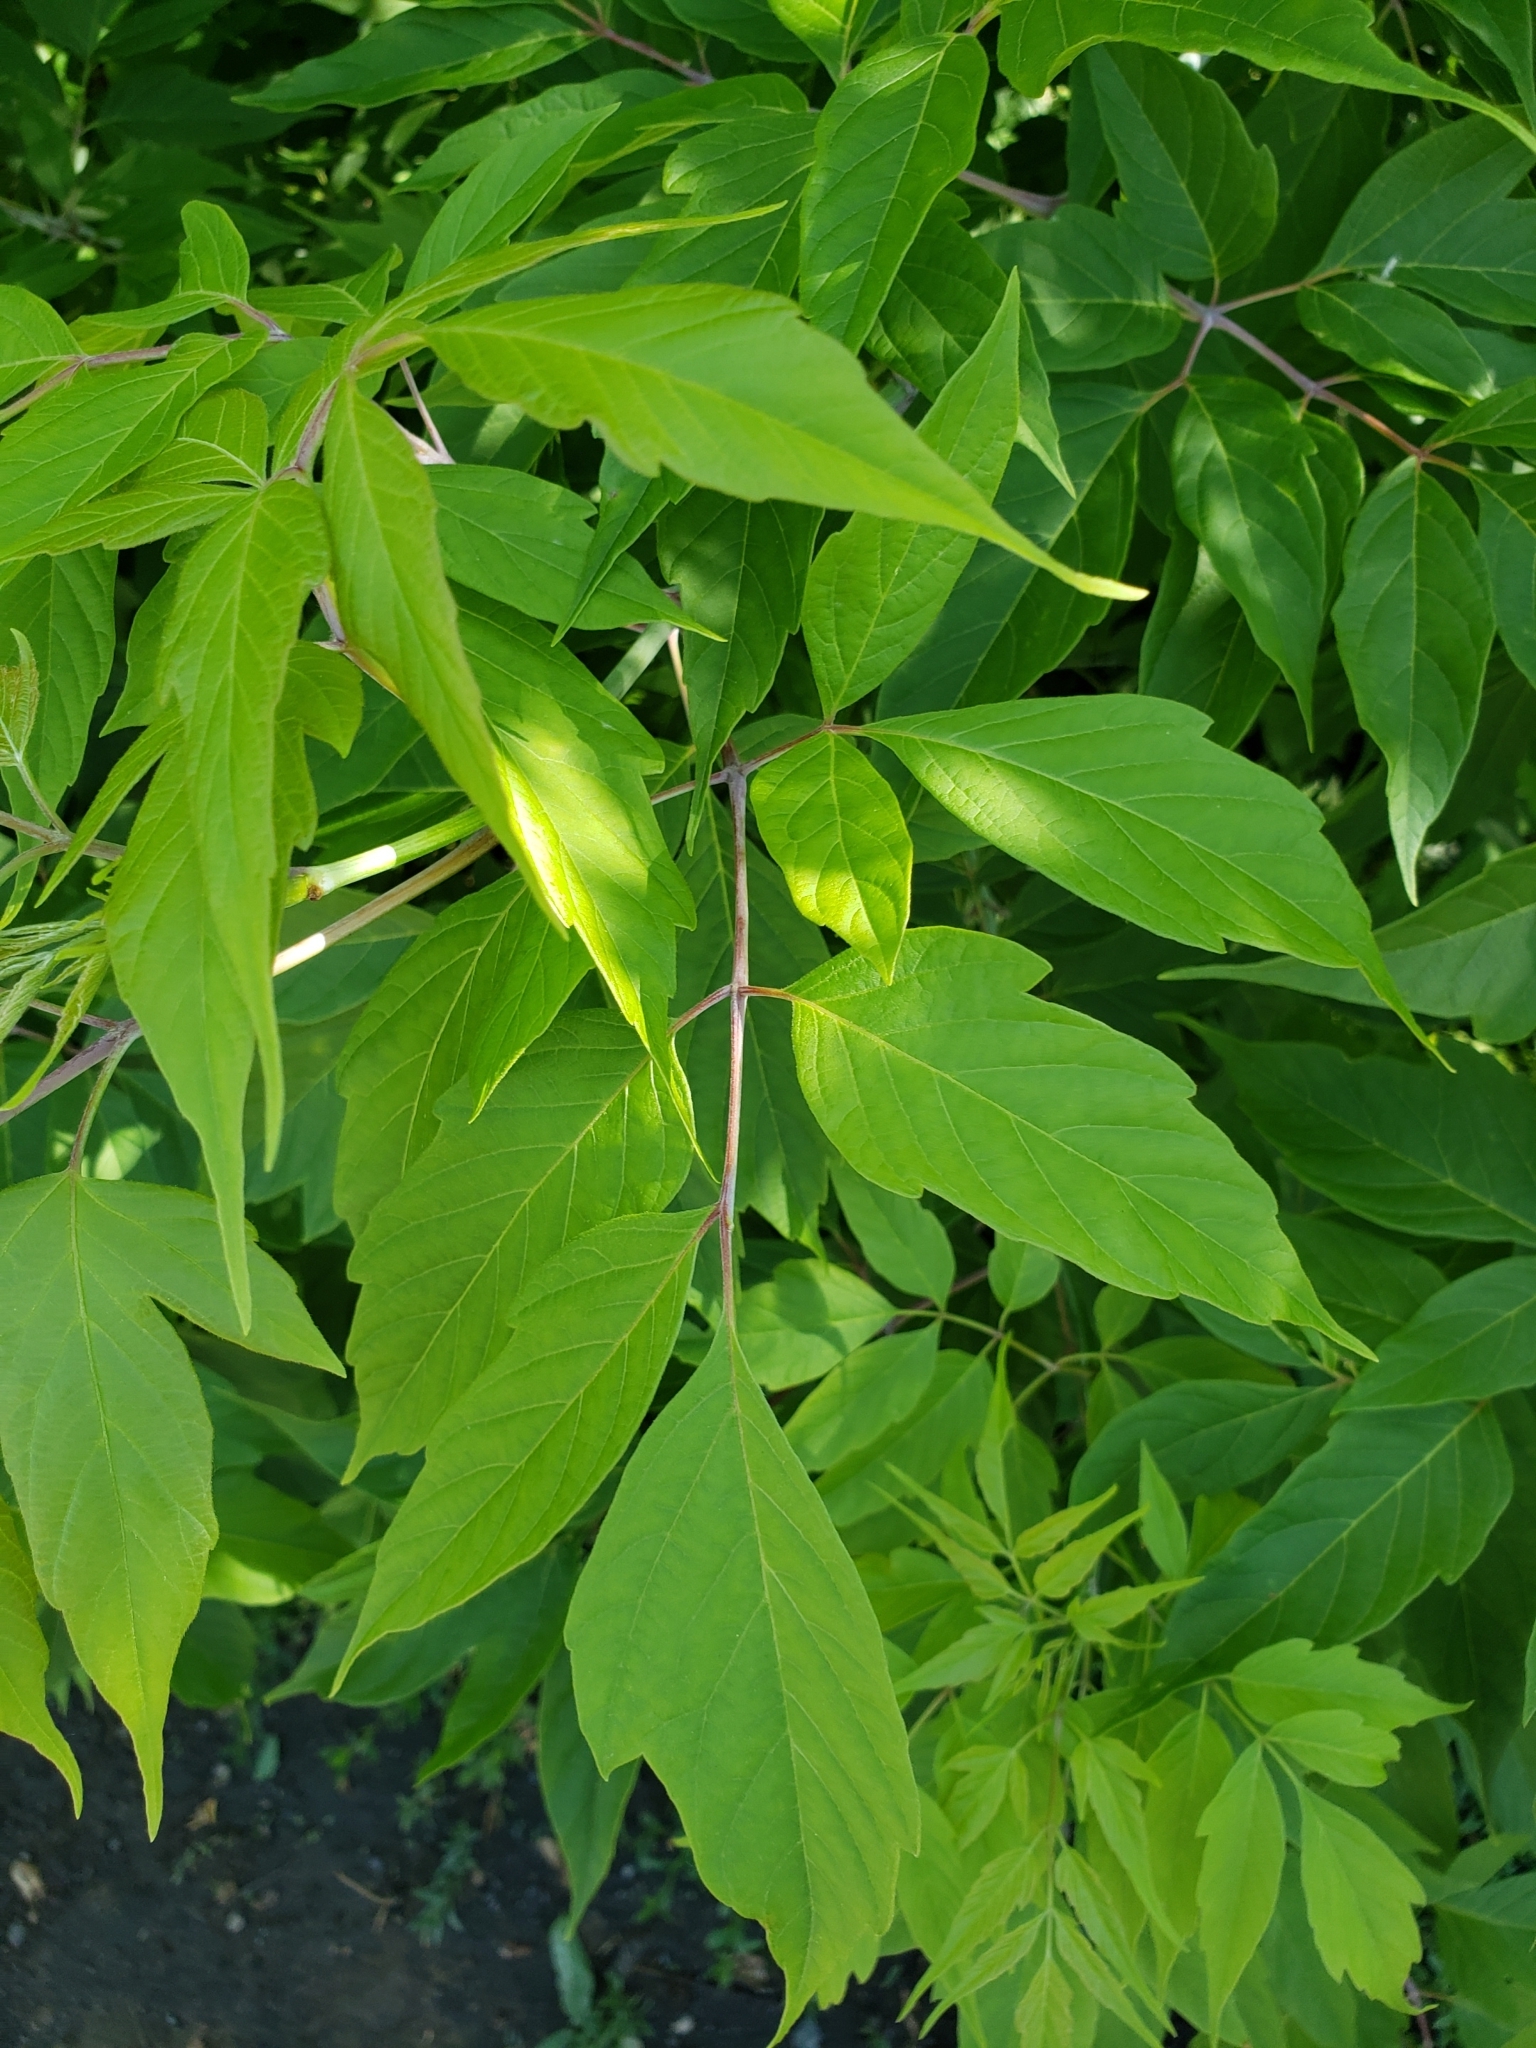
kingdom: Plantae
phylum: Tracheophyta
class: Magnoliopsida
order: Sapindales
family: Sapindaceae
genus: Acer
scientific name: Acer negundo
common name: Ashleaf maple
